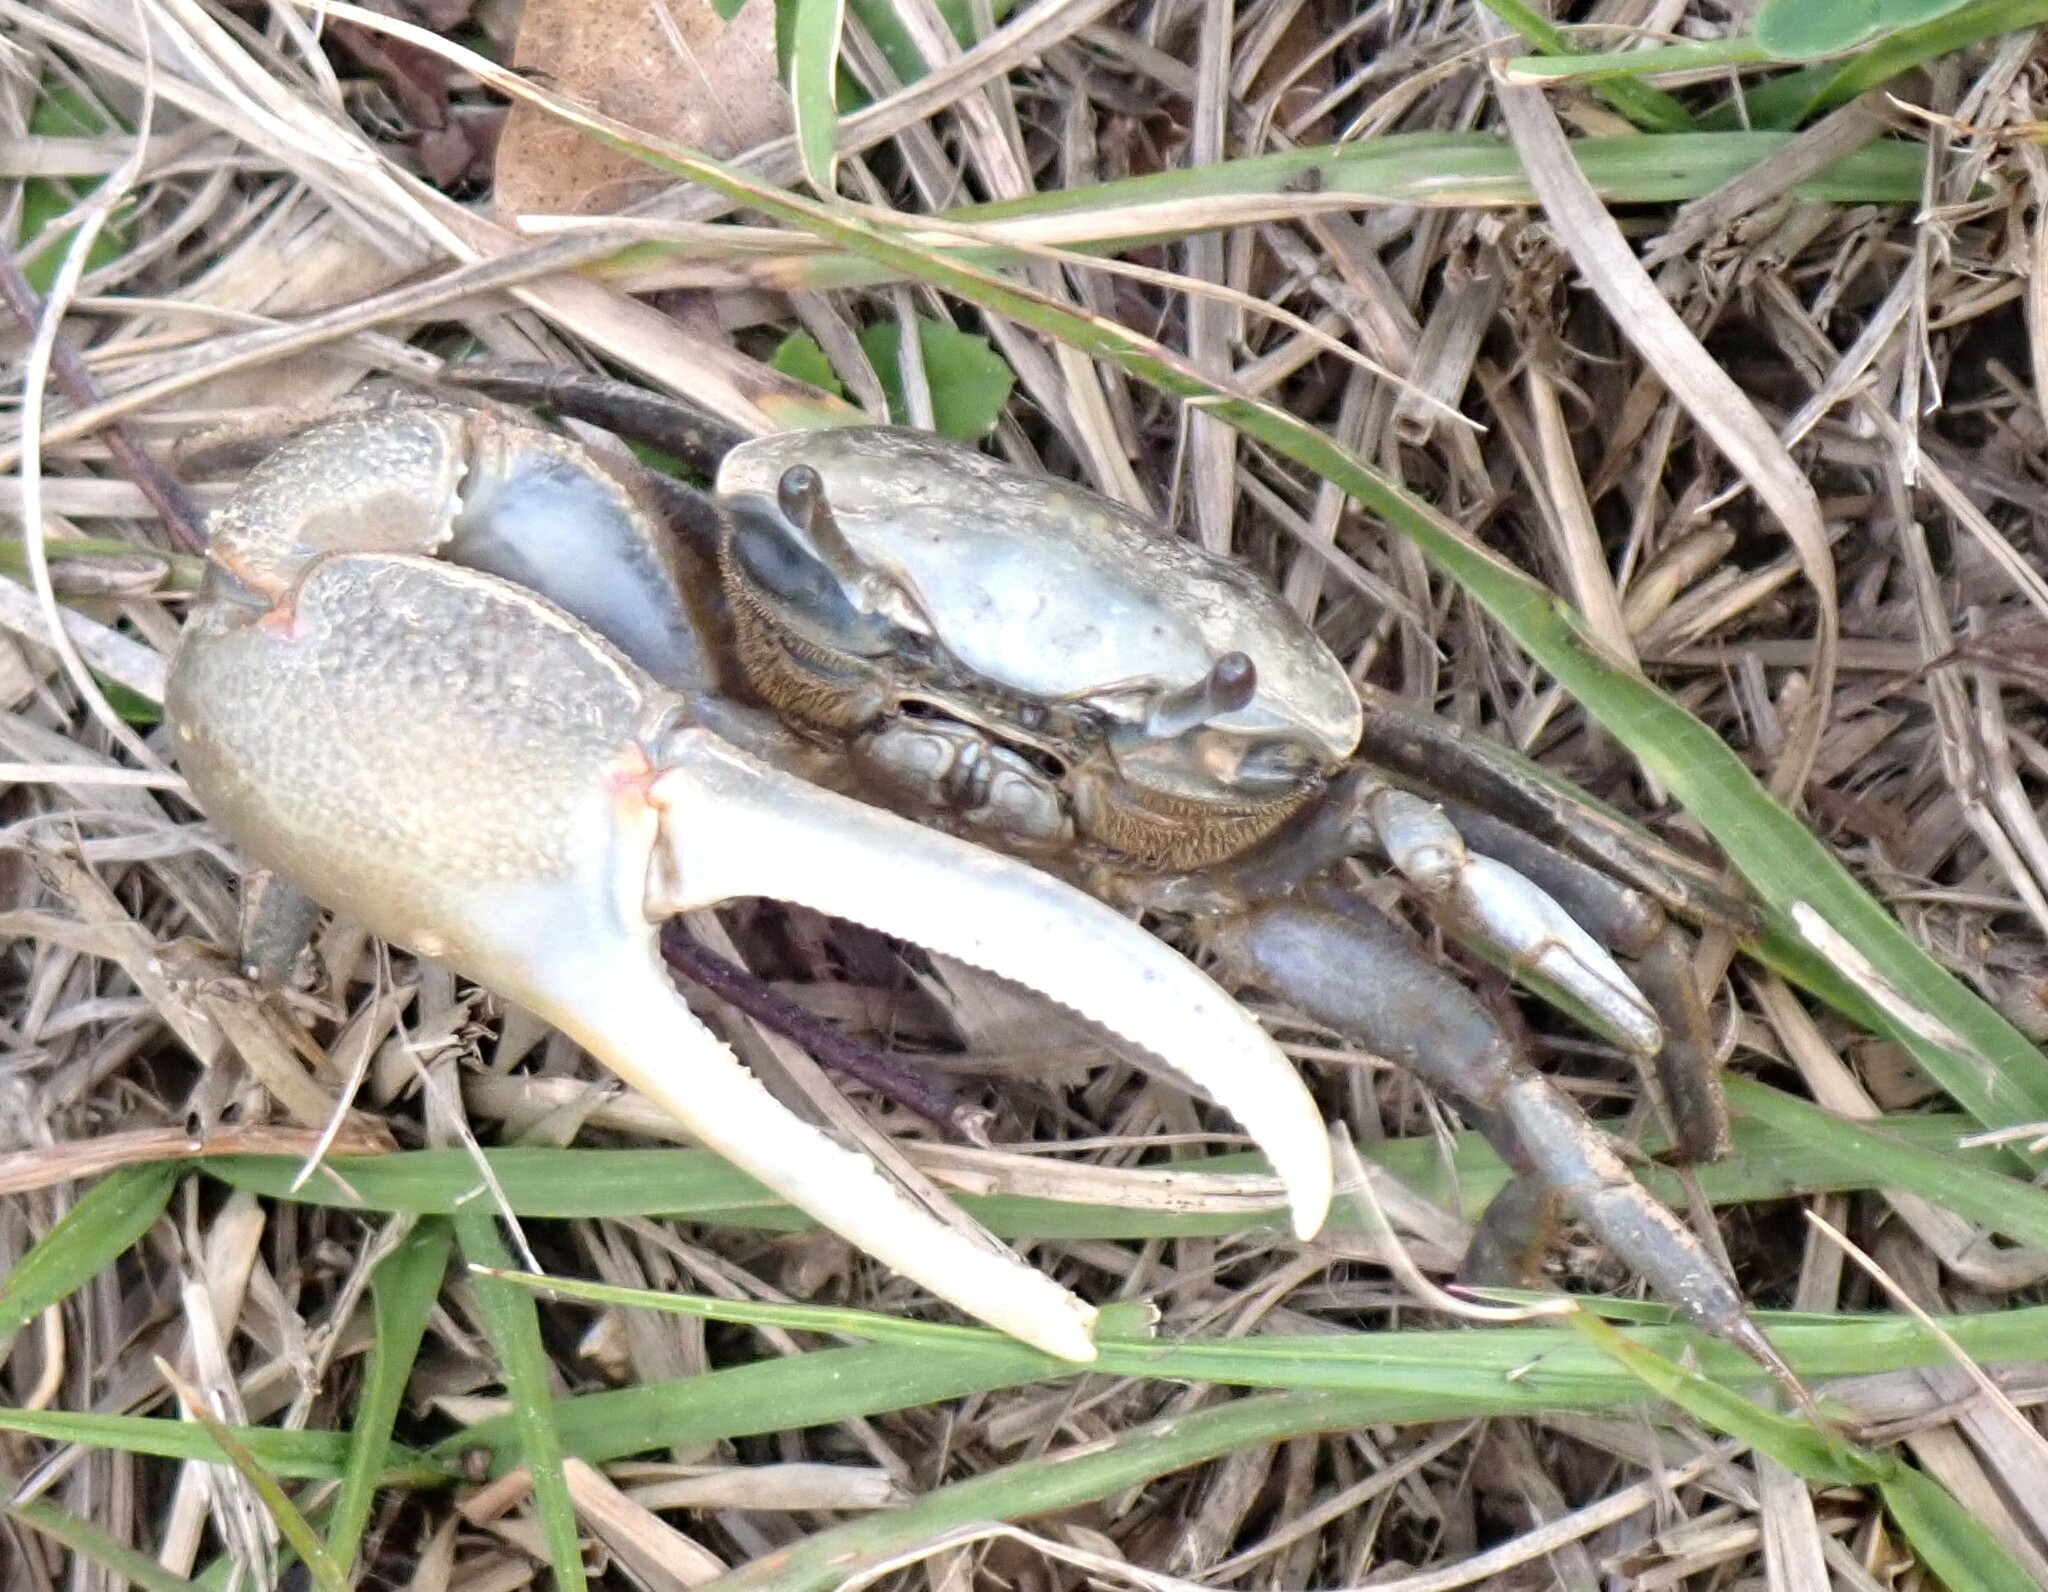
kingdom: Animalia
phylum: Arthropoda
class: Malacostraca
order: Decapoda
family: Ocypodidae
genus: Minuca
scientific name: Minuca minax
